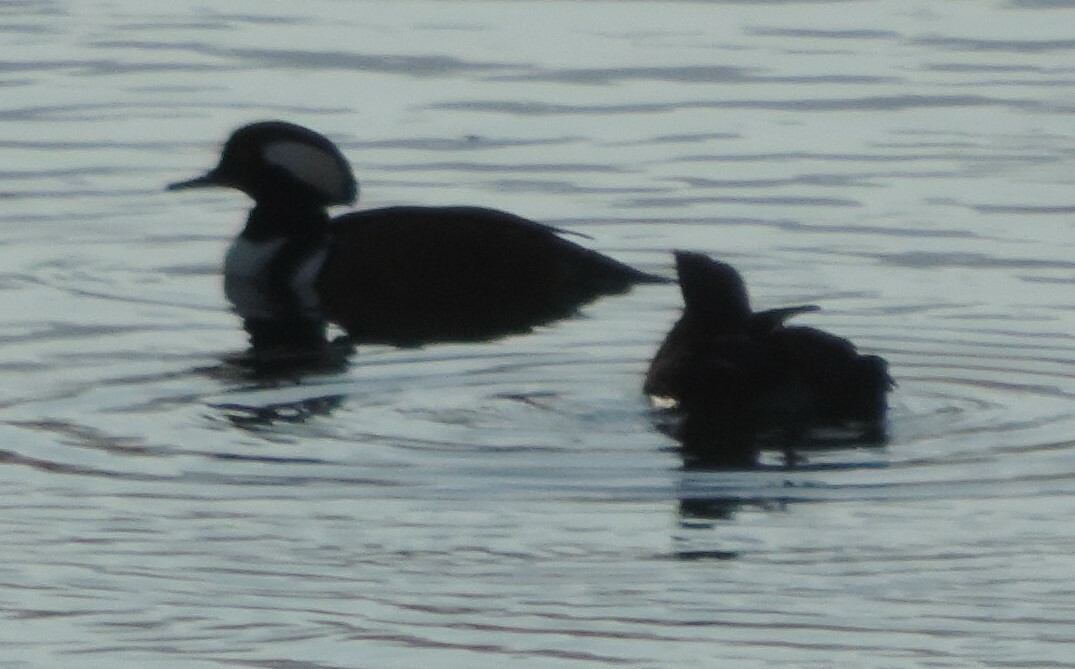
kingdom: Animalia
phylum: Chordata
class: Aves
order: Anseriformes
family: Anatidae
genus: Lophodytes
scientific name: Lophodytes cucullatus
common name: Hooded merganser
